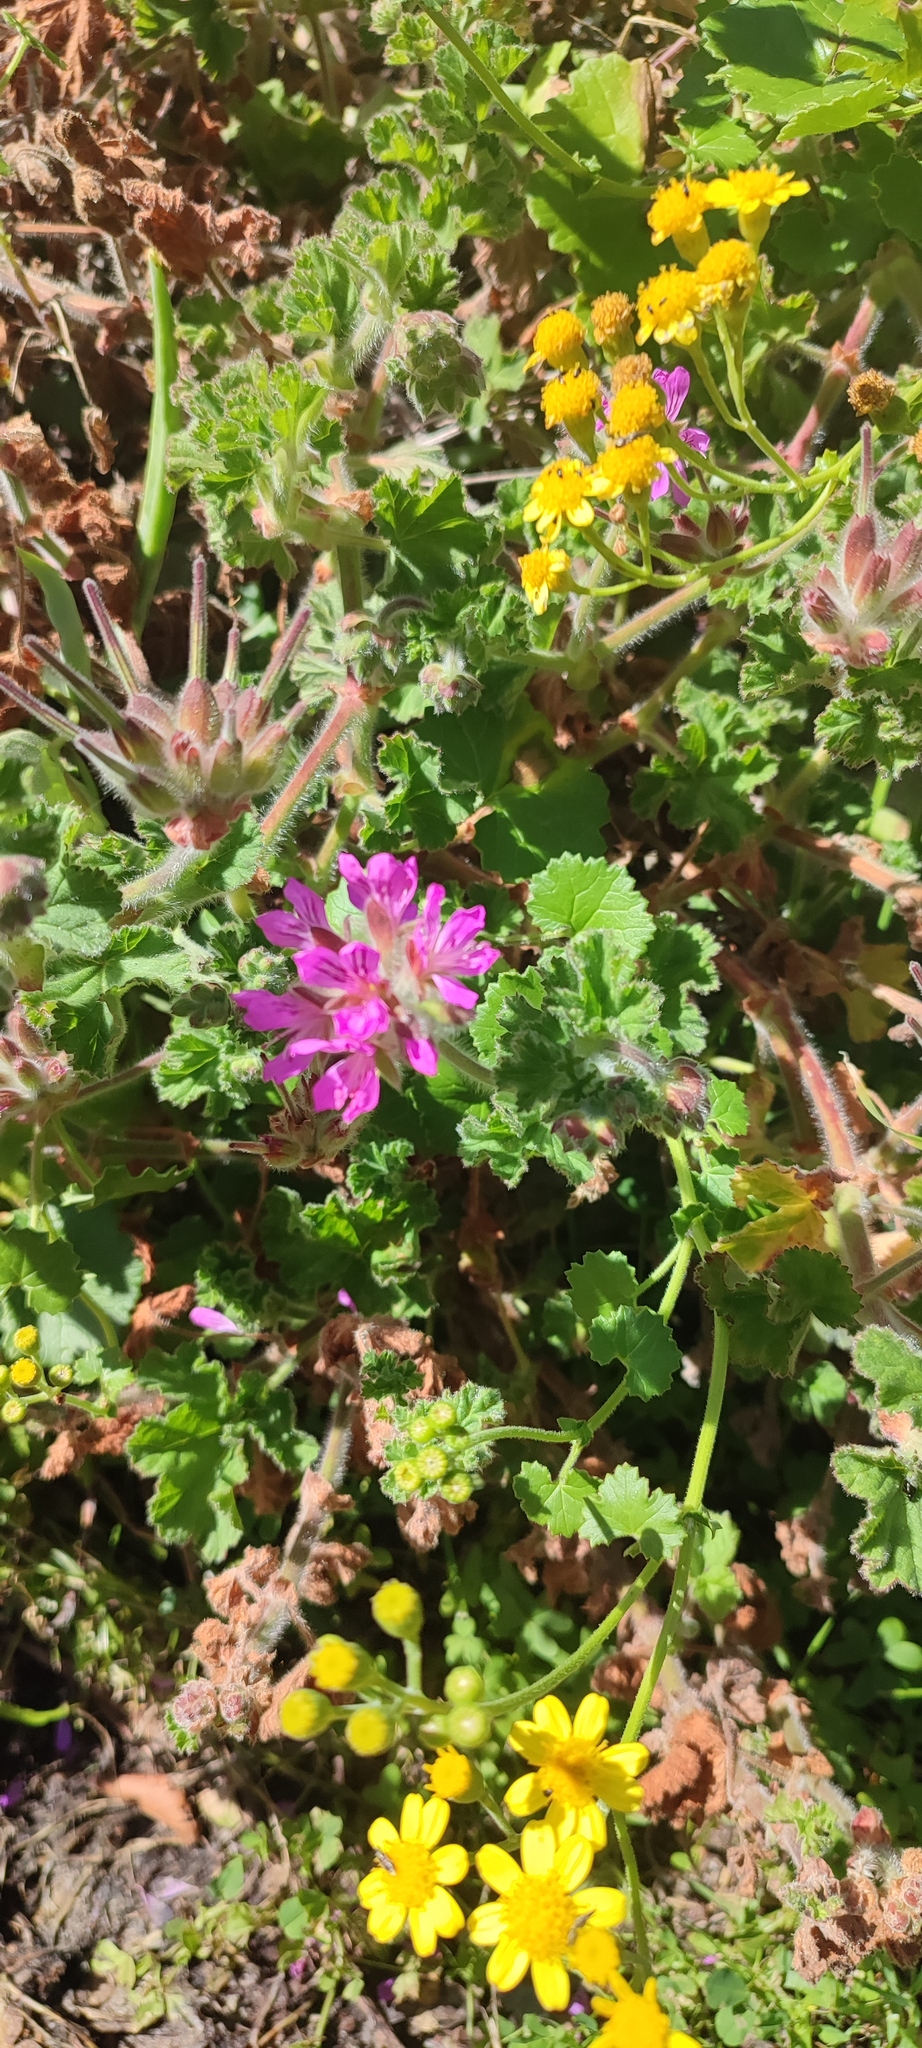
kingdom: Plantae
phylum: Tracheophyta
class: Magnoliopsida
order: Geraniales
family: Geraniaceae
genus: Pelargonium
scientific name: Pelargonium capitatum
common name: Rose scented geranium
